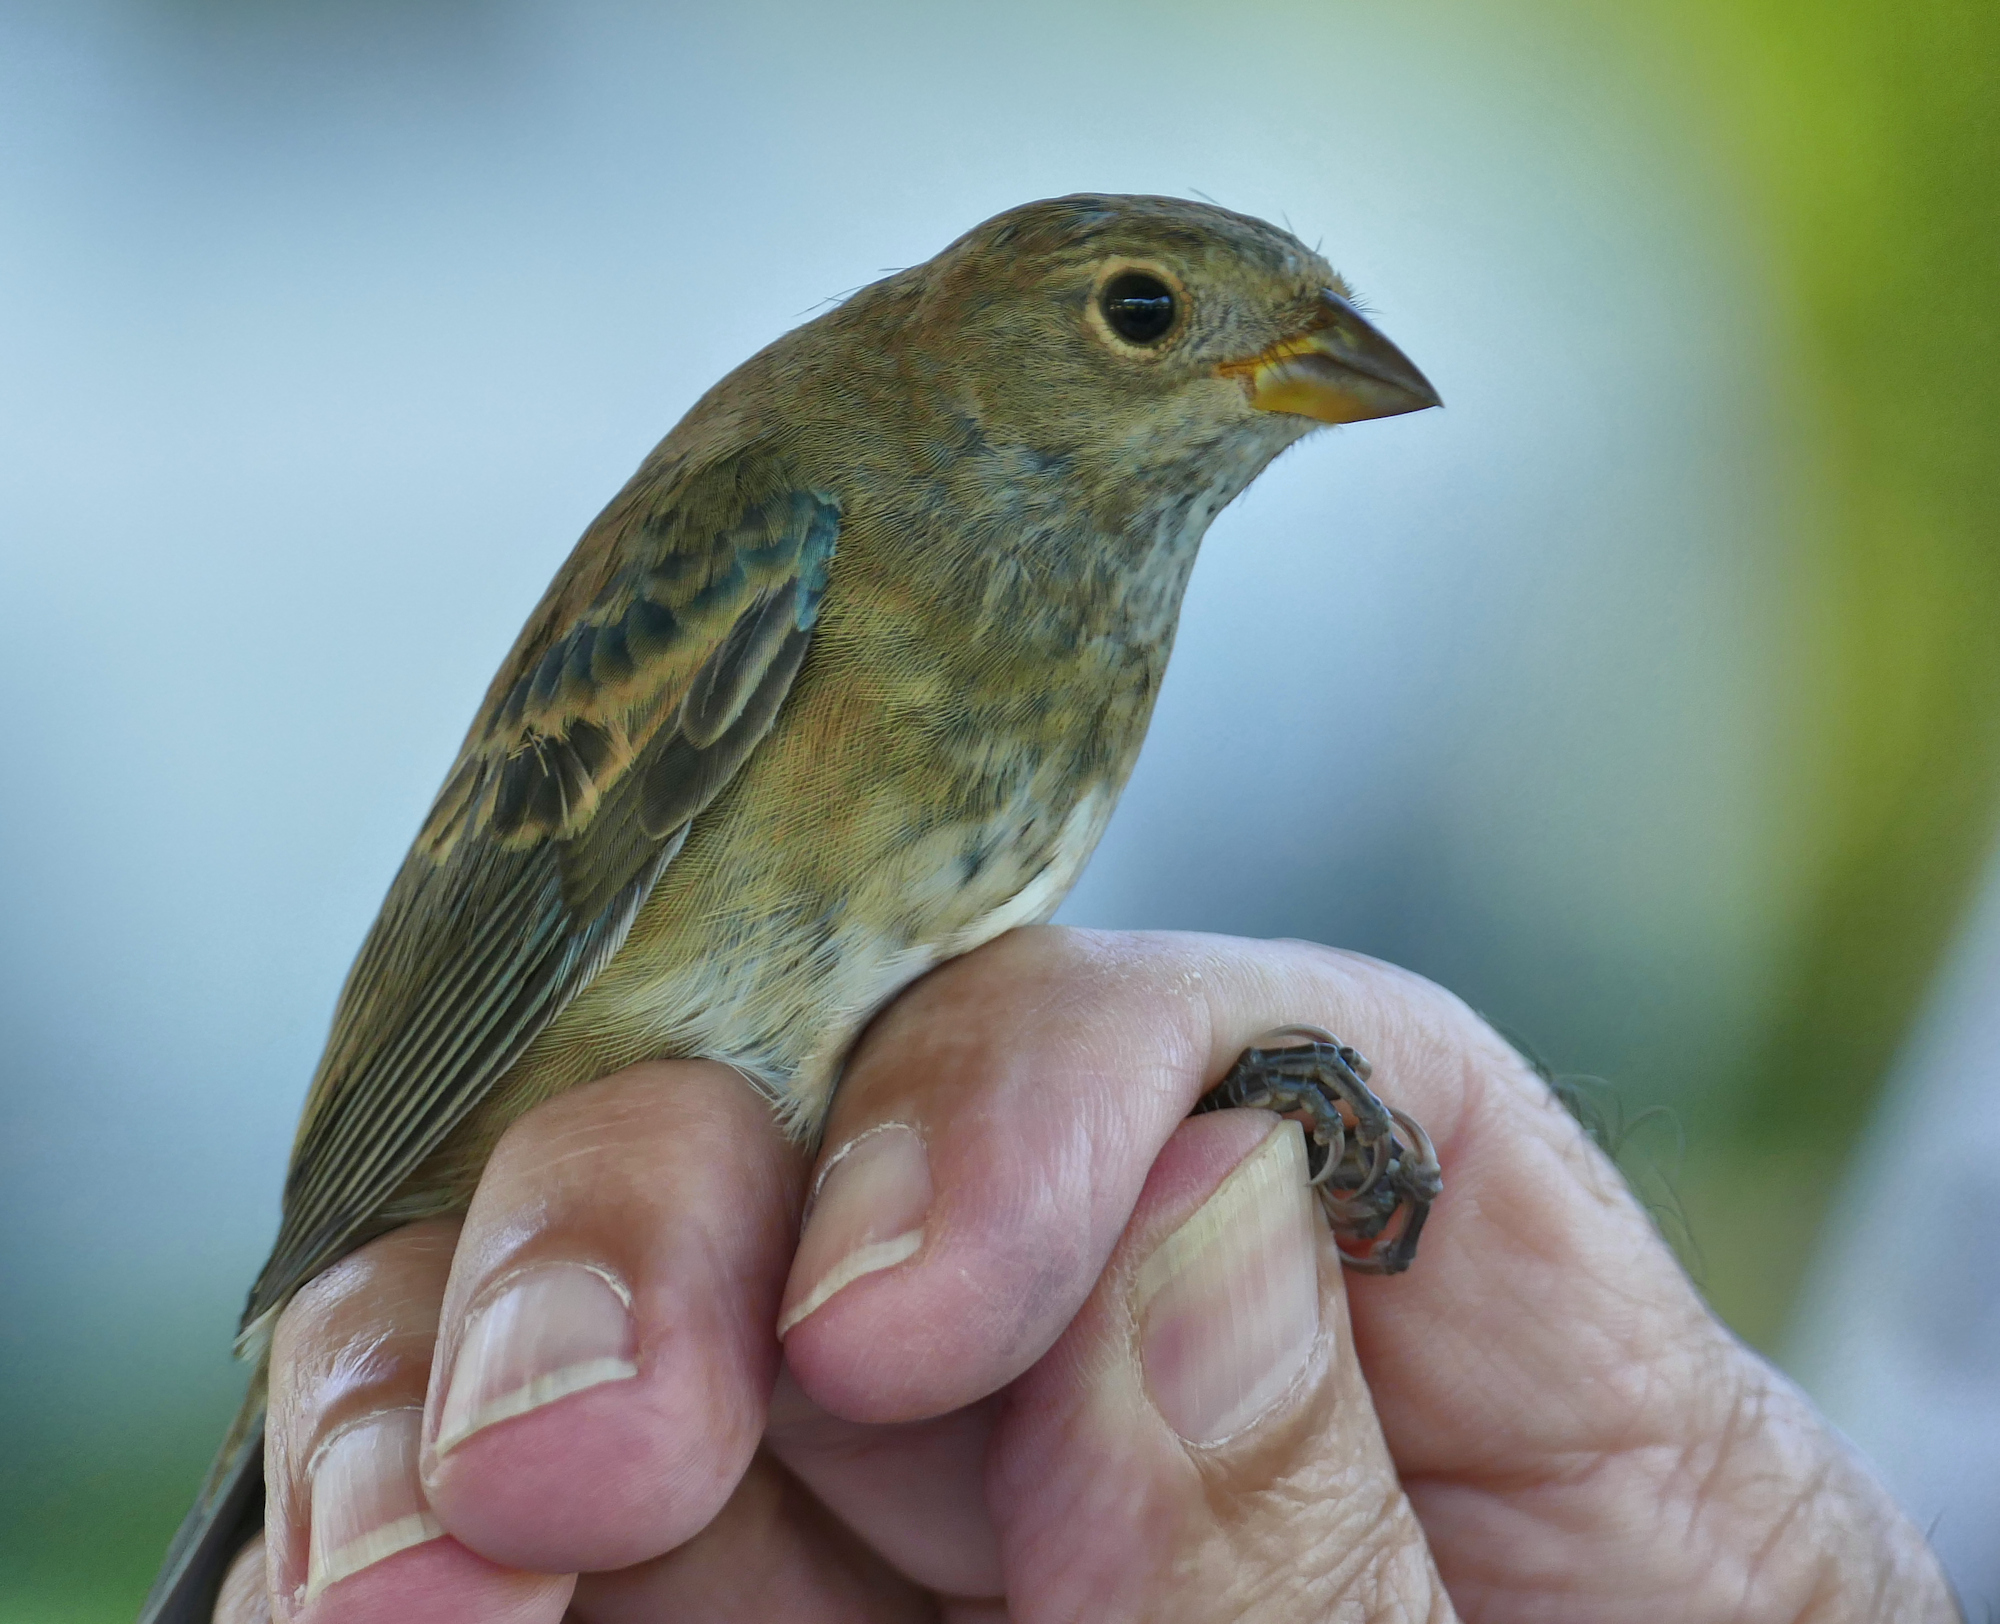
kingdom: Animalia
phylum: Chordata
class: Aves
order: Passeriformes
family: Cardinalidae
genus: Passerina
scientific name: Passerina cyanea
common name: Indigo bunting
